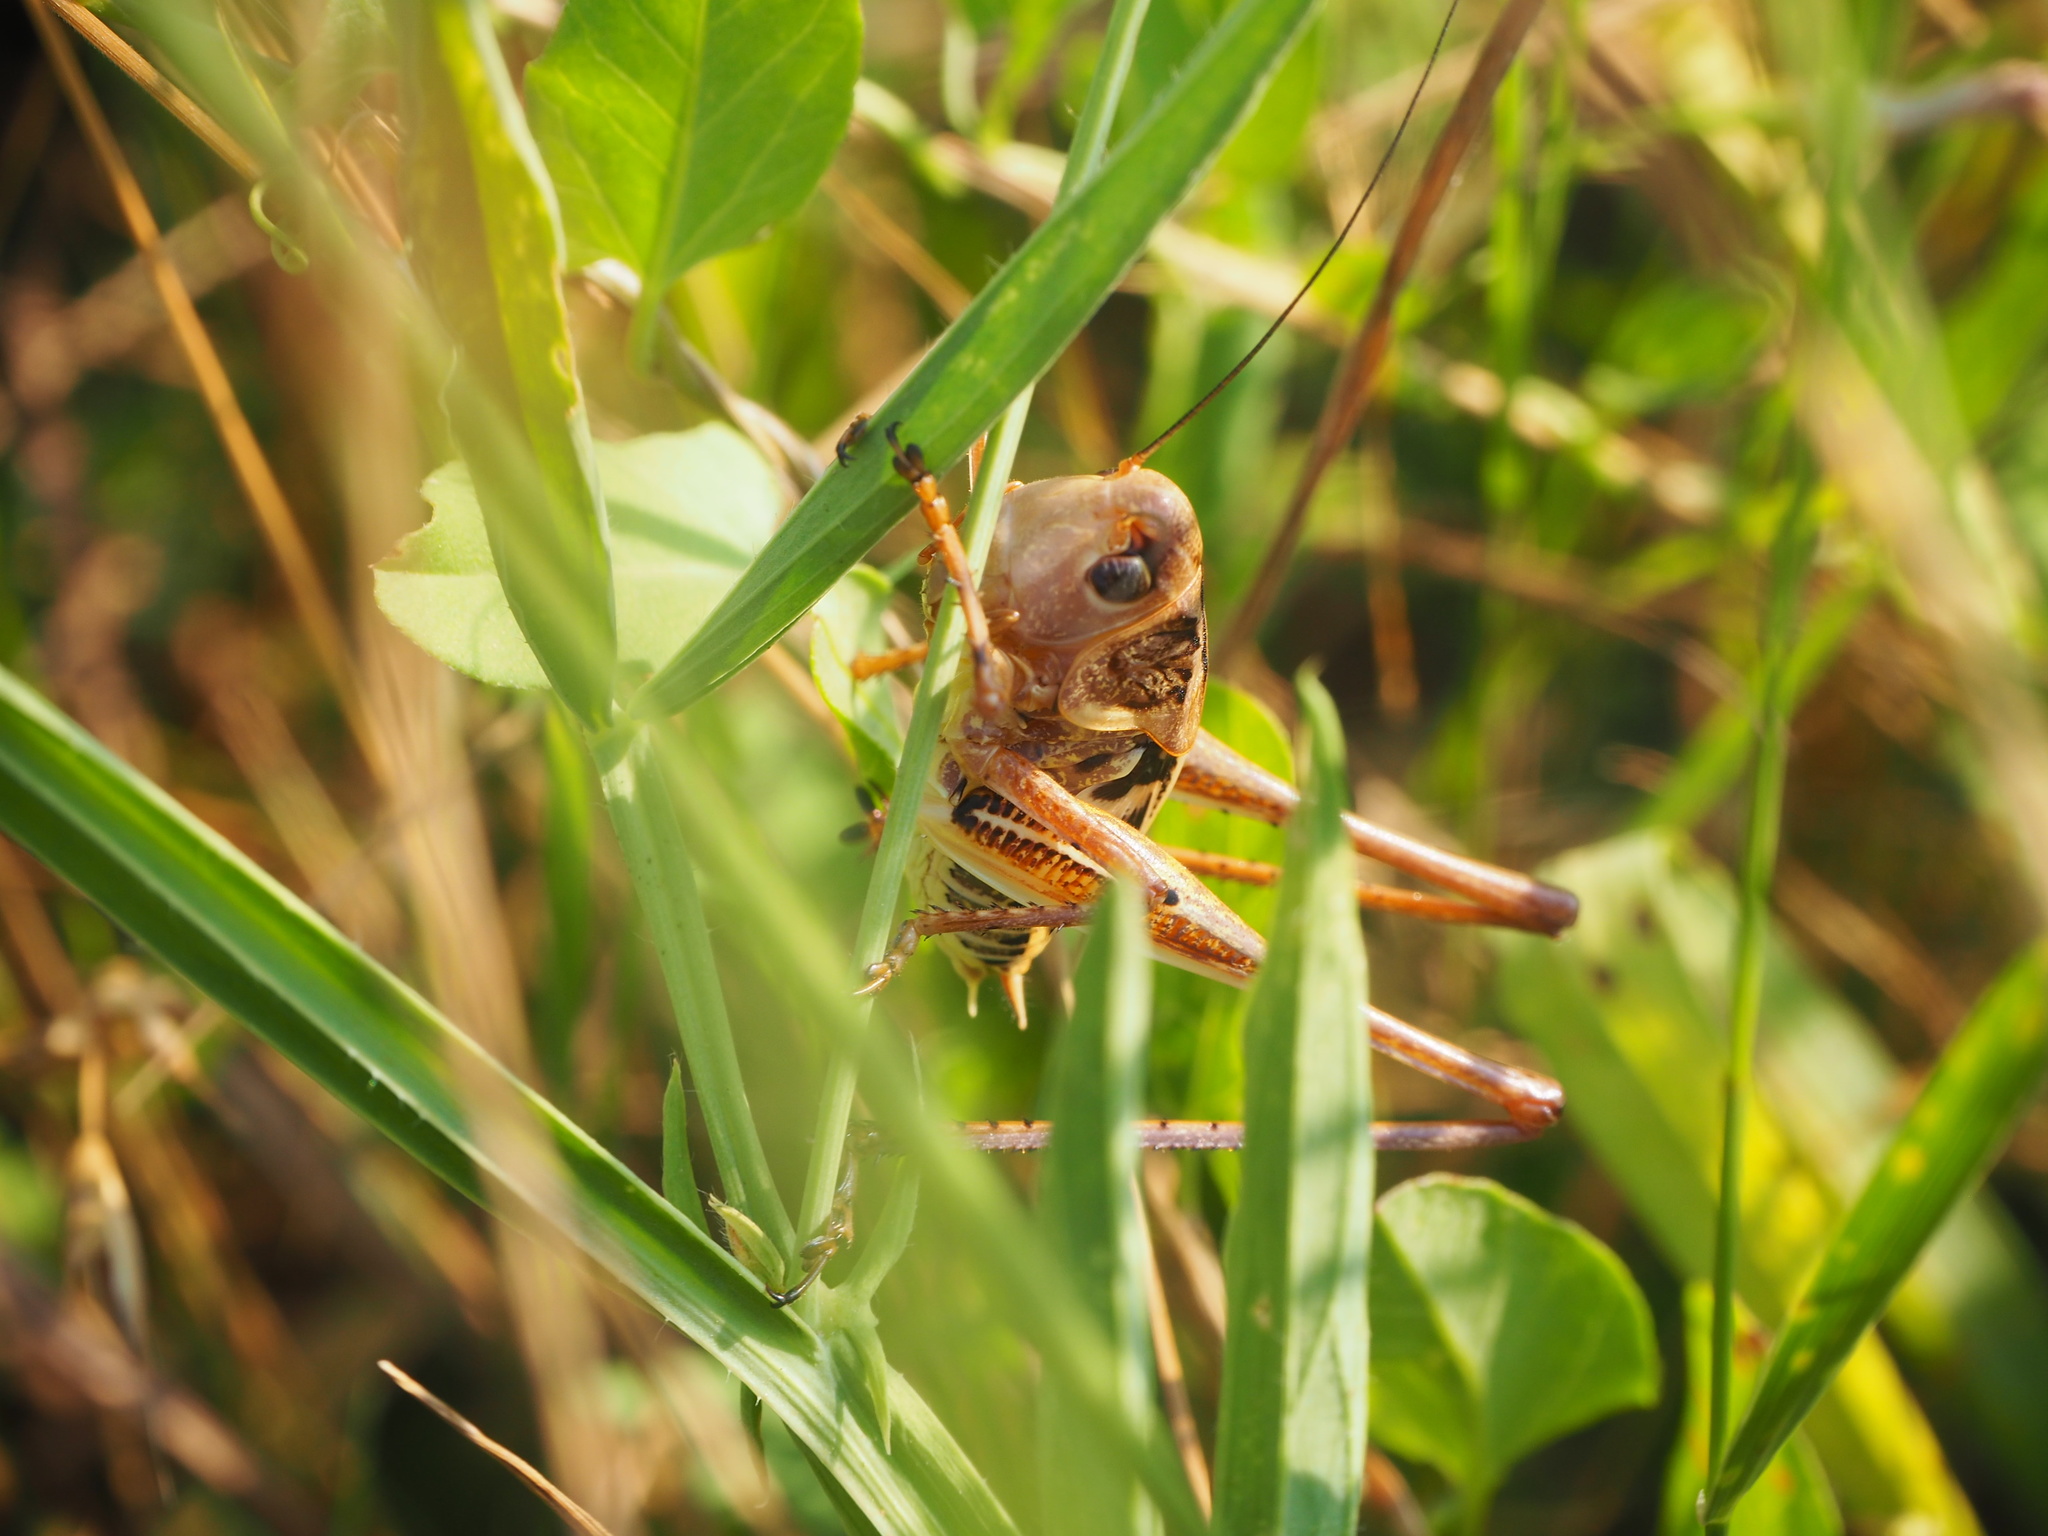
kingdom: Animalia
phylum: Arthropoda
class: Insecta
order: Orthoptera
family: Tettigoniidae
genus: Decticus
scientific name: Decticus albifrons
